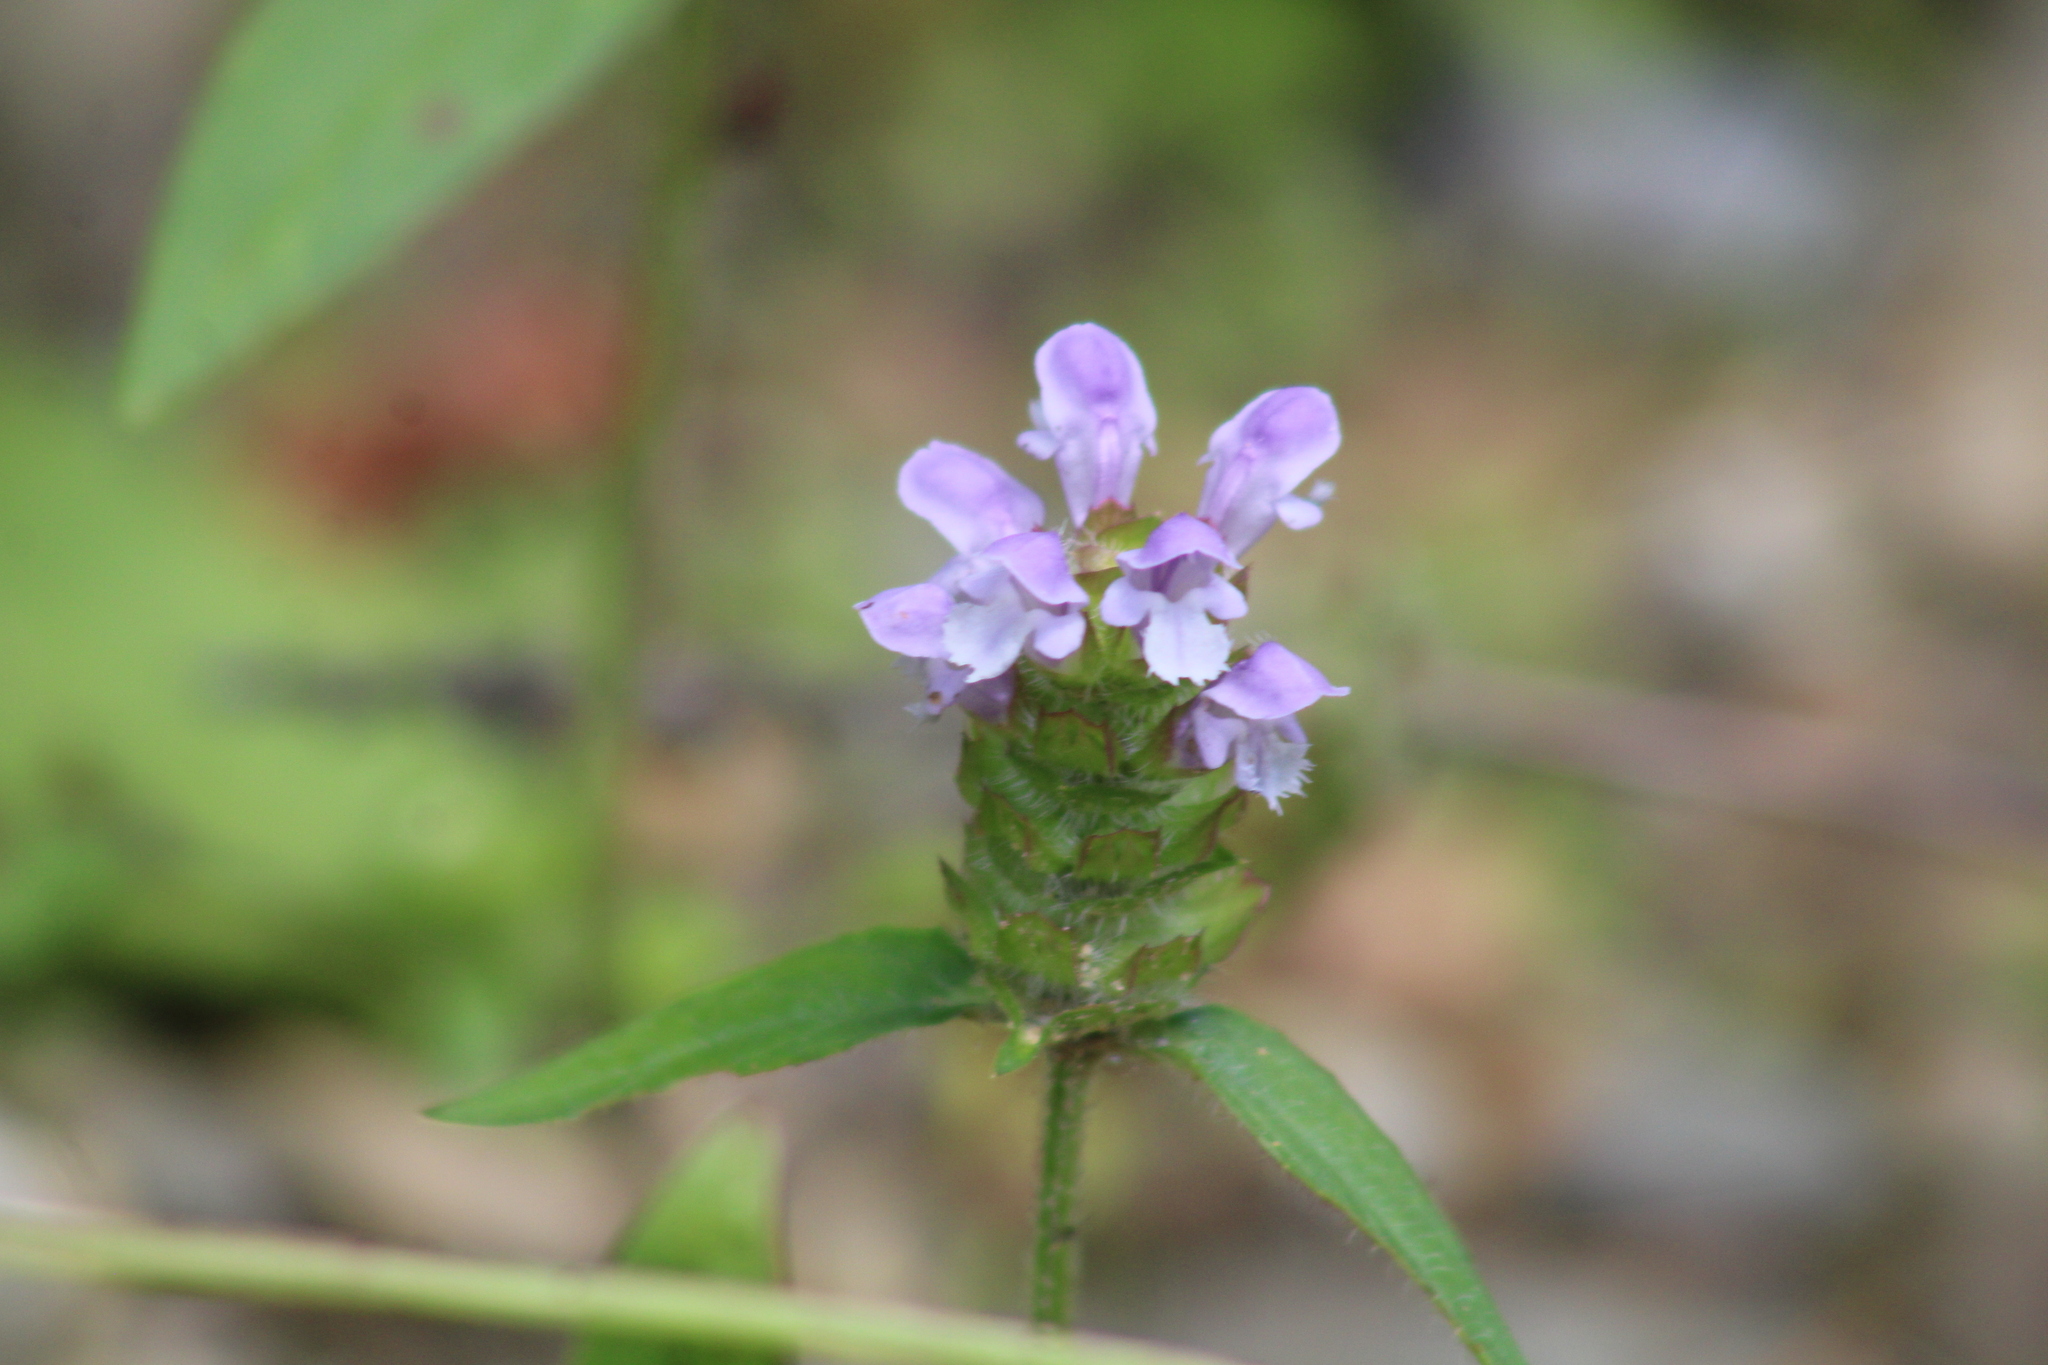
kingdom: Plantae
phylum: Tracheophyta
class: Magnoliopsida
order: Lamiales
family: Lamiaceae
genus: Prunella
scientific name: Prunella vulgaris
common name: Heal-all
